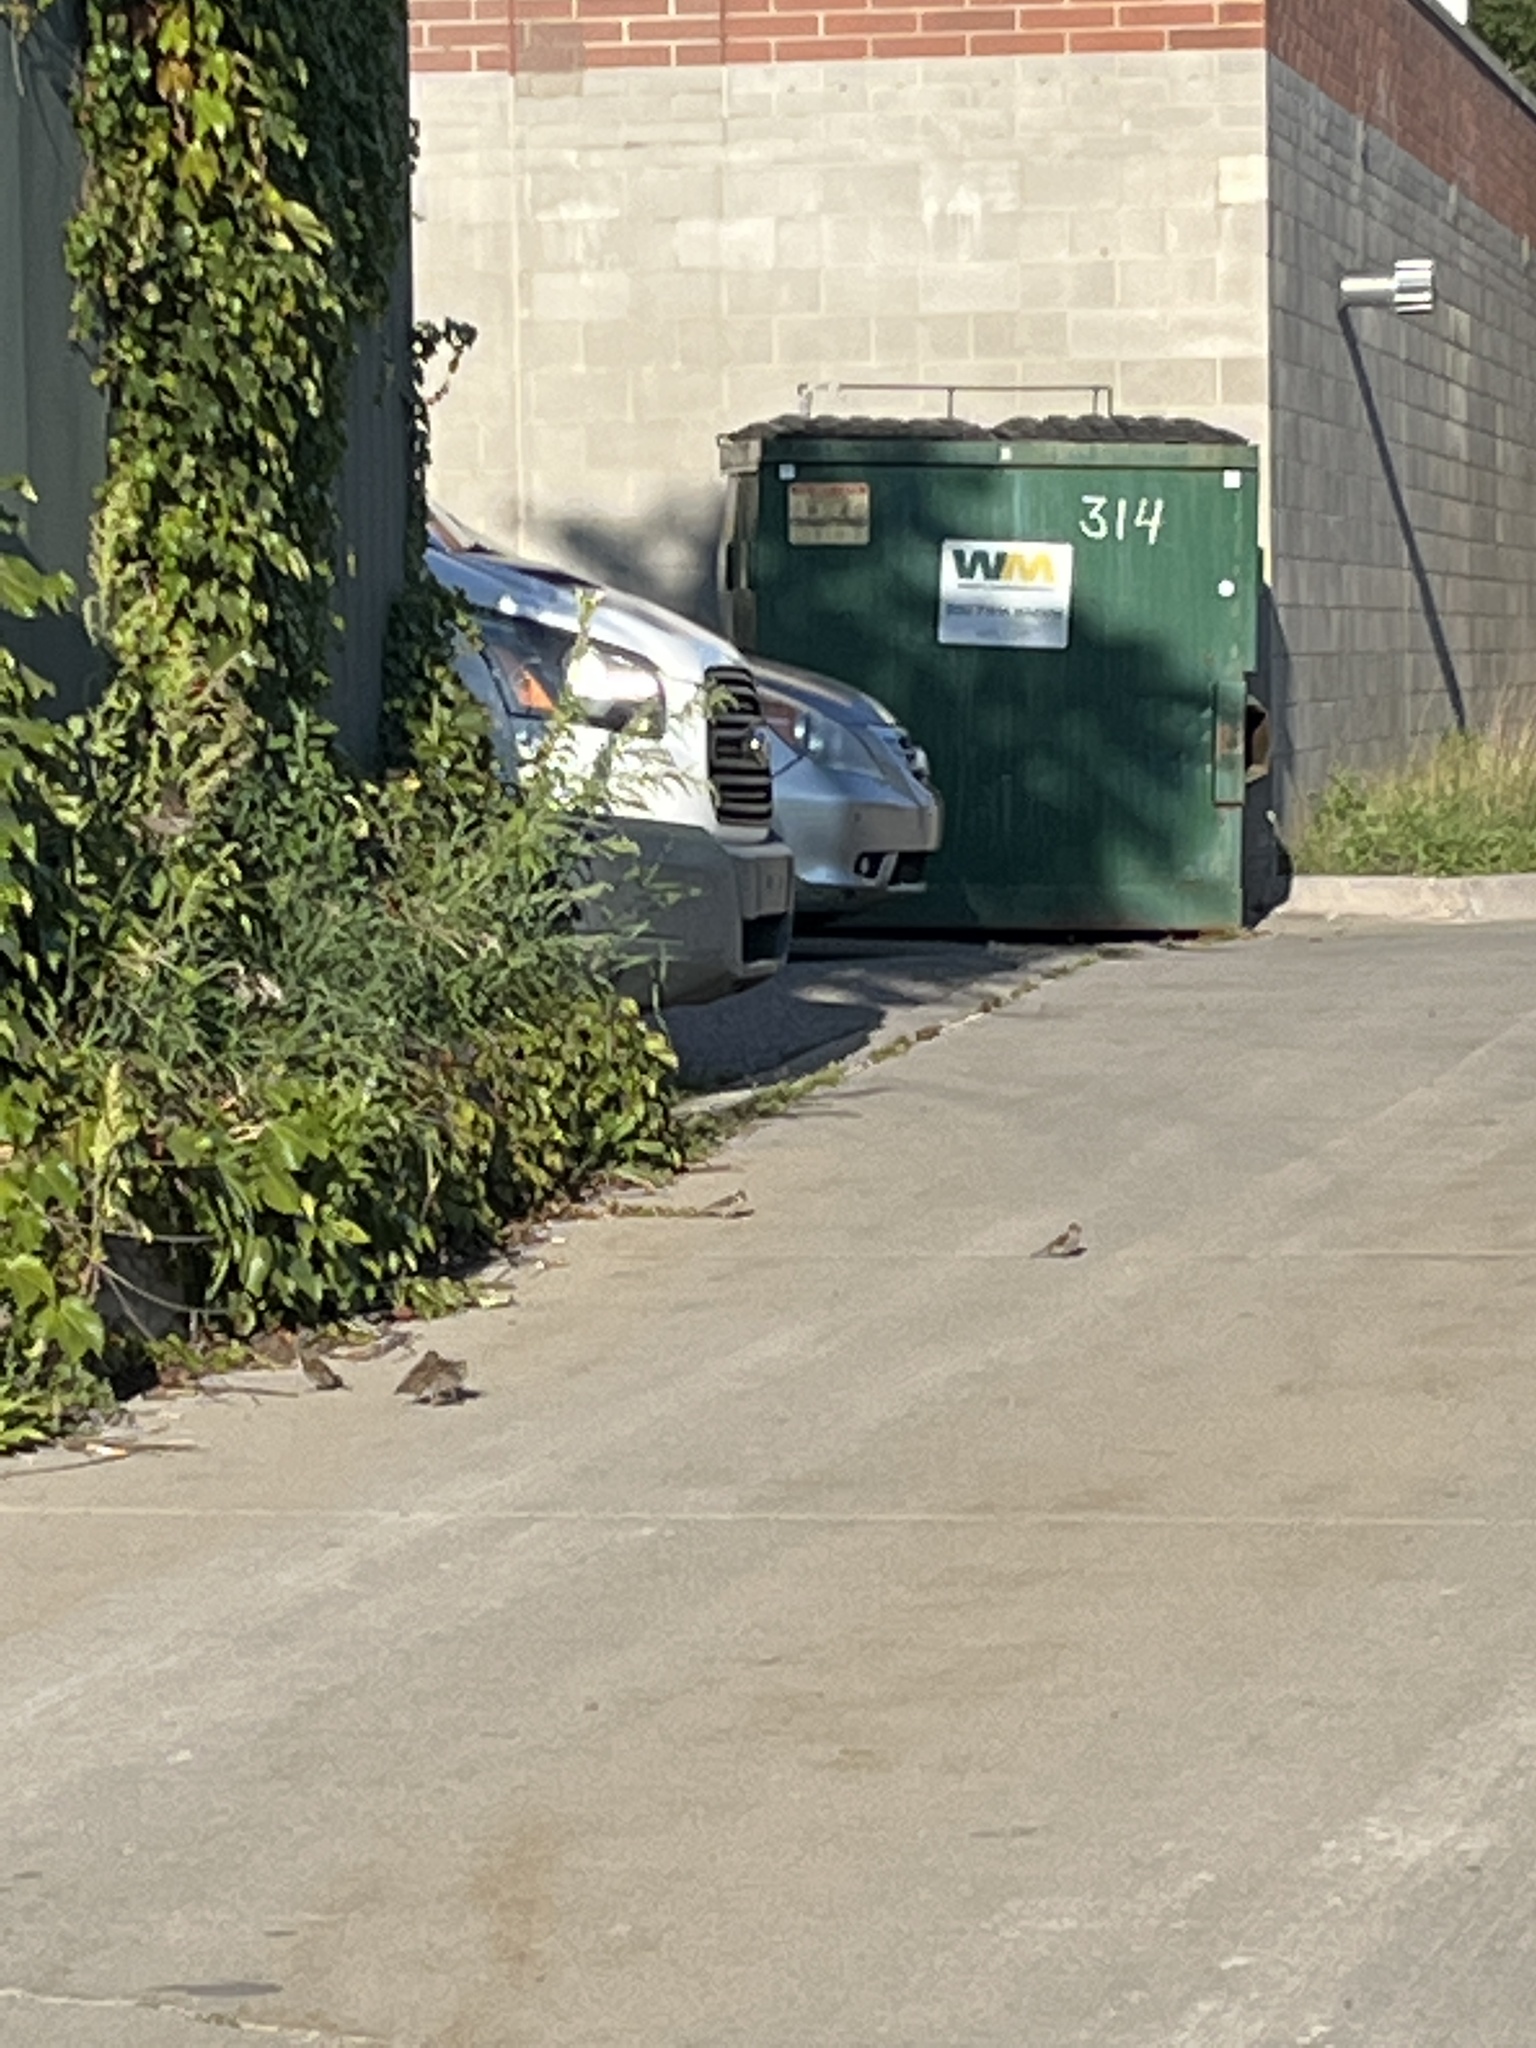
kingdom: Animalia
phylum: Chordata
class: Aves
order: Passeriformes
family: Passeridae
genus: Passer
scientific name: Passer domesticus
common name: House sparrow
